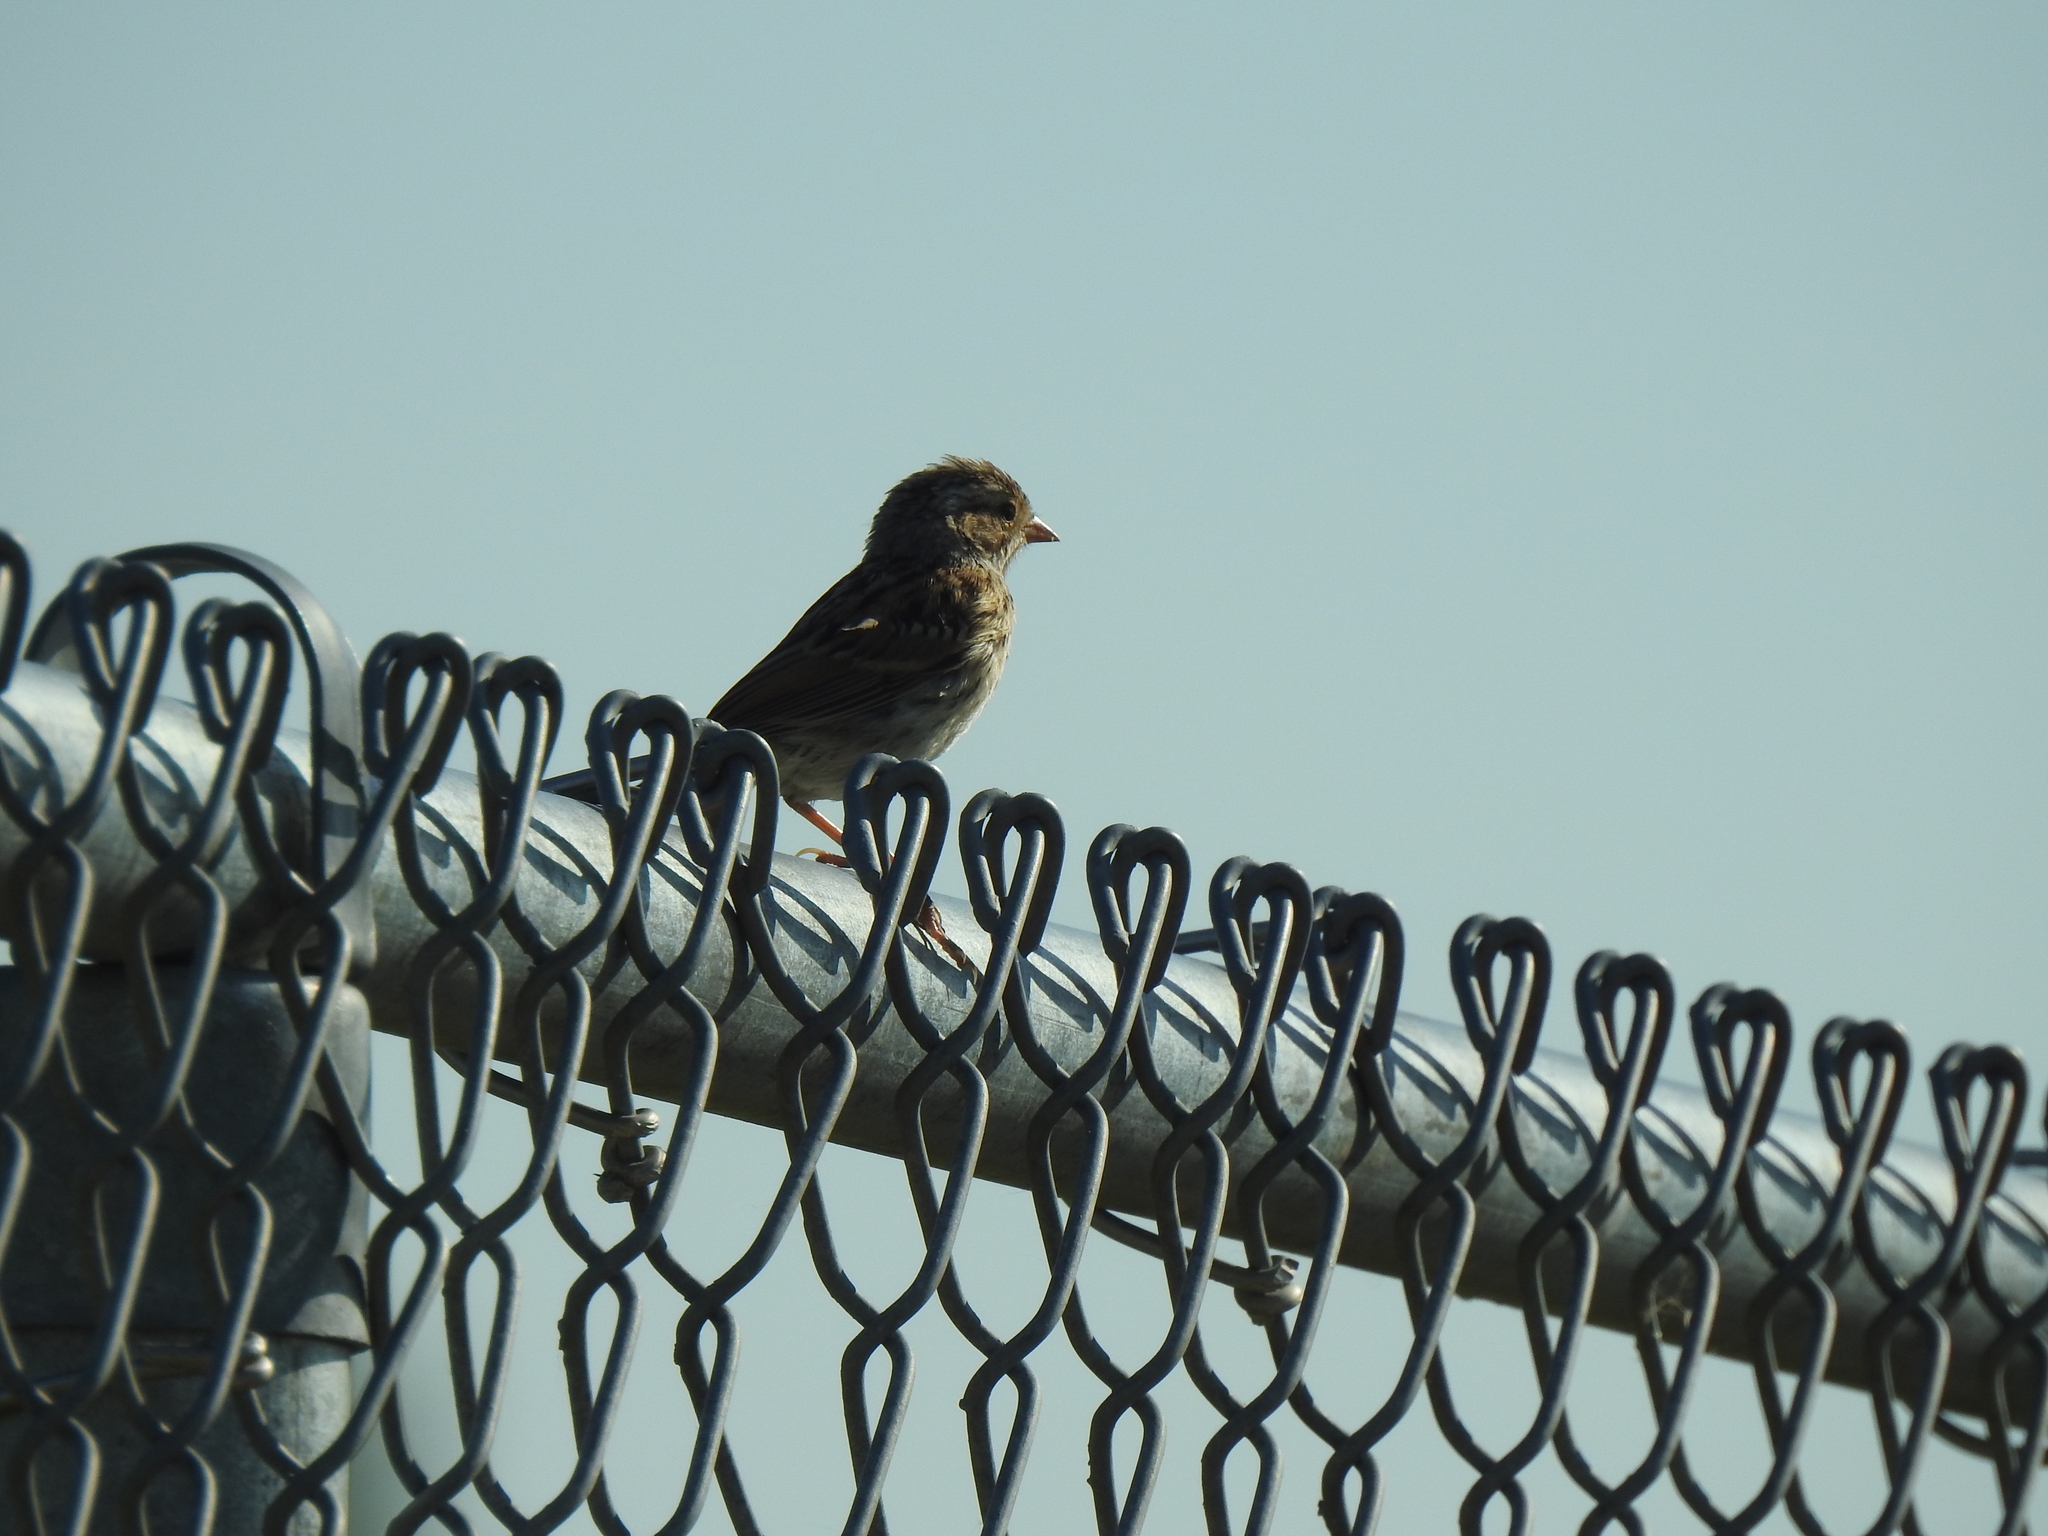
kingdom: Animalia
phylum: Chordata
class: Aves
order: Passeriformes
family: Passerellidae
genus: Spizella
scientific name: Spizella pallida
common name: Clay-colored sparrow
